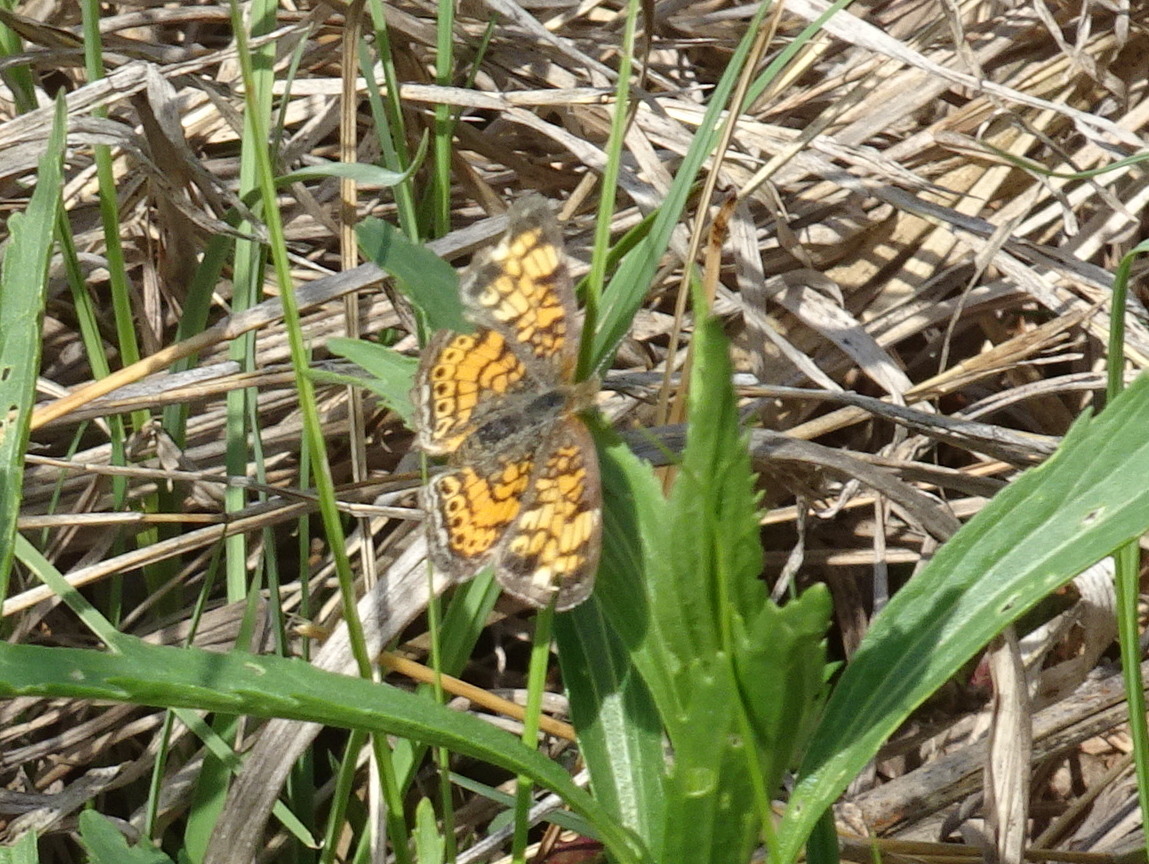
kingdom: Animalia
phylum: Arthropoda
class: Insecta
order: Lepidoptera
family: Nymphalidae
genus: Phyciodes
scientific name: Phyciodes tharos
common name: Pearl crescent
